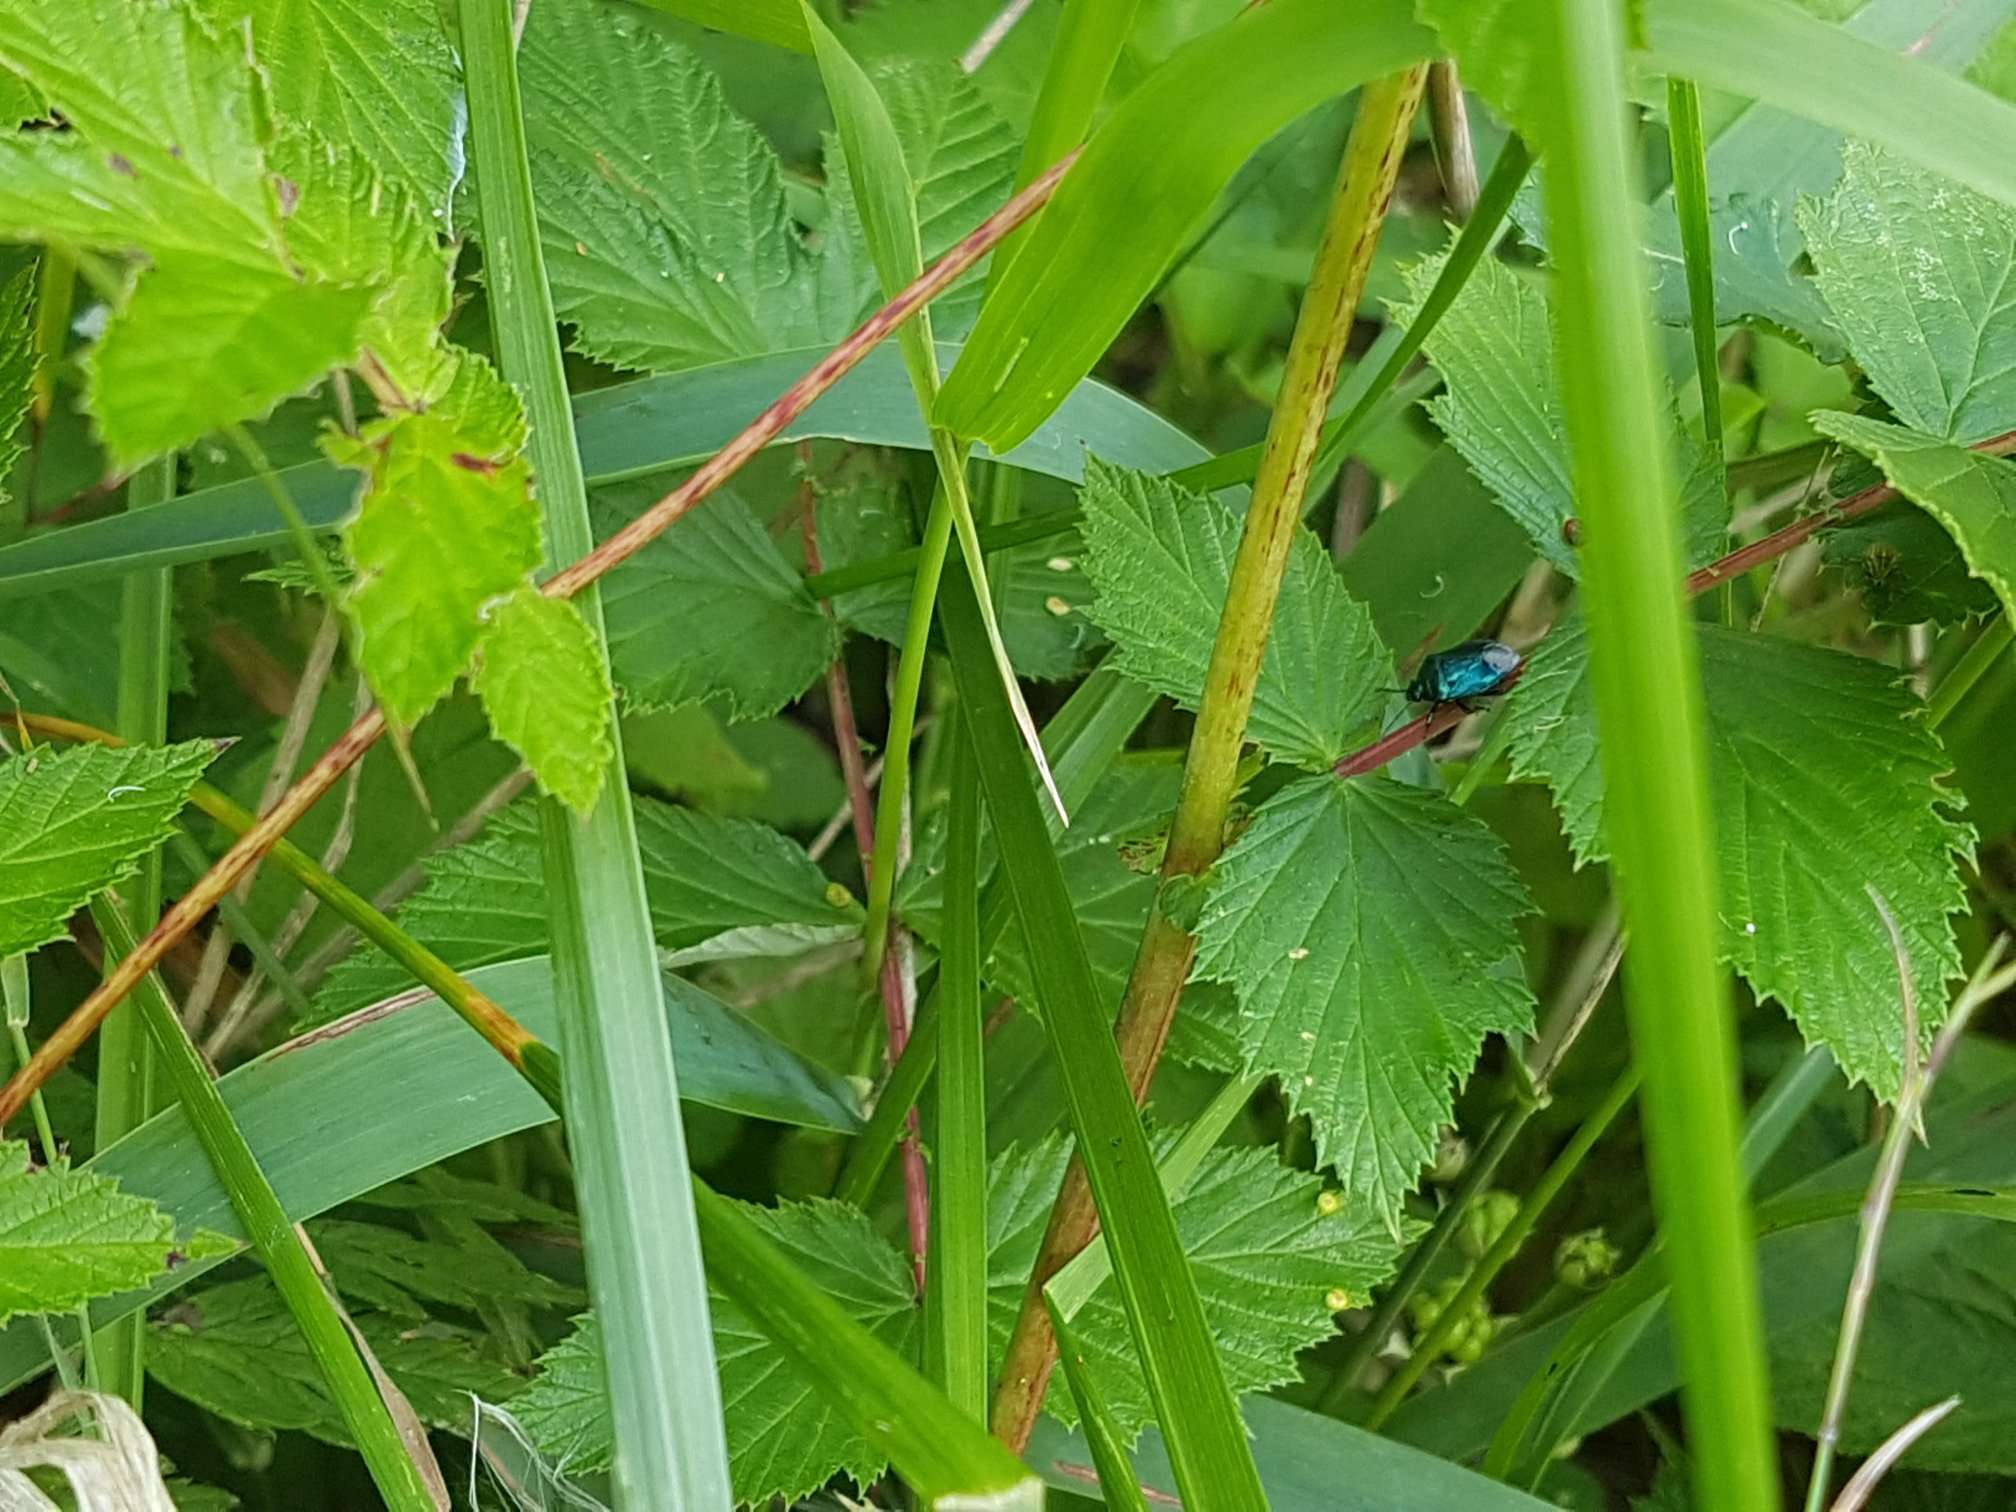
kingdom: Animalia
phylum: Arthropoda
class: Insecta
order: Hemiptera
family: Pentatomidae
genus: Zicrona
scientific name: Zicrona caerulea
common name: Blue shieldbug
